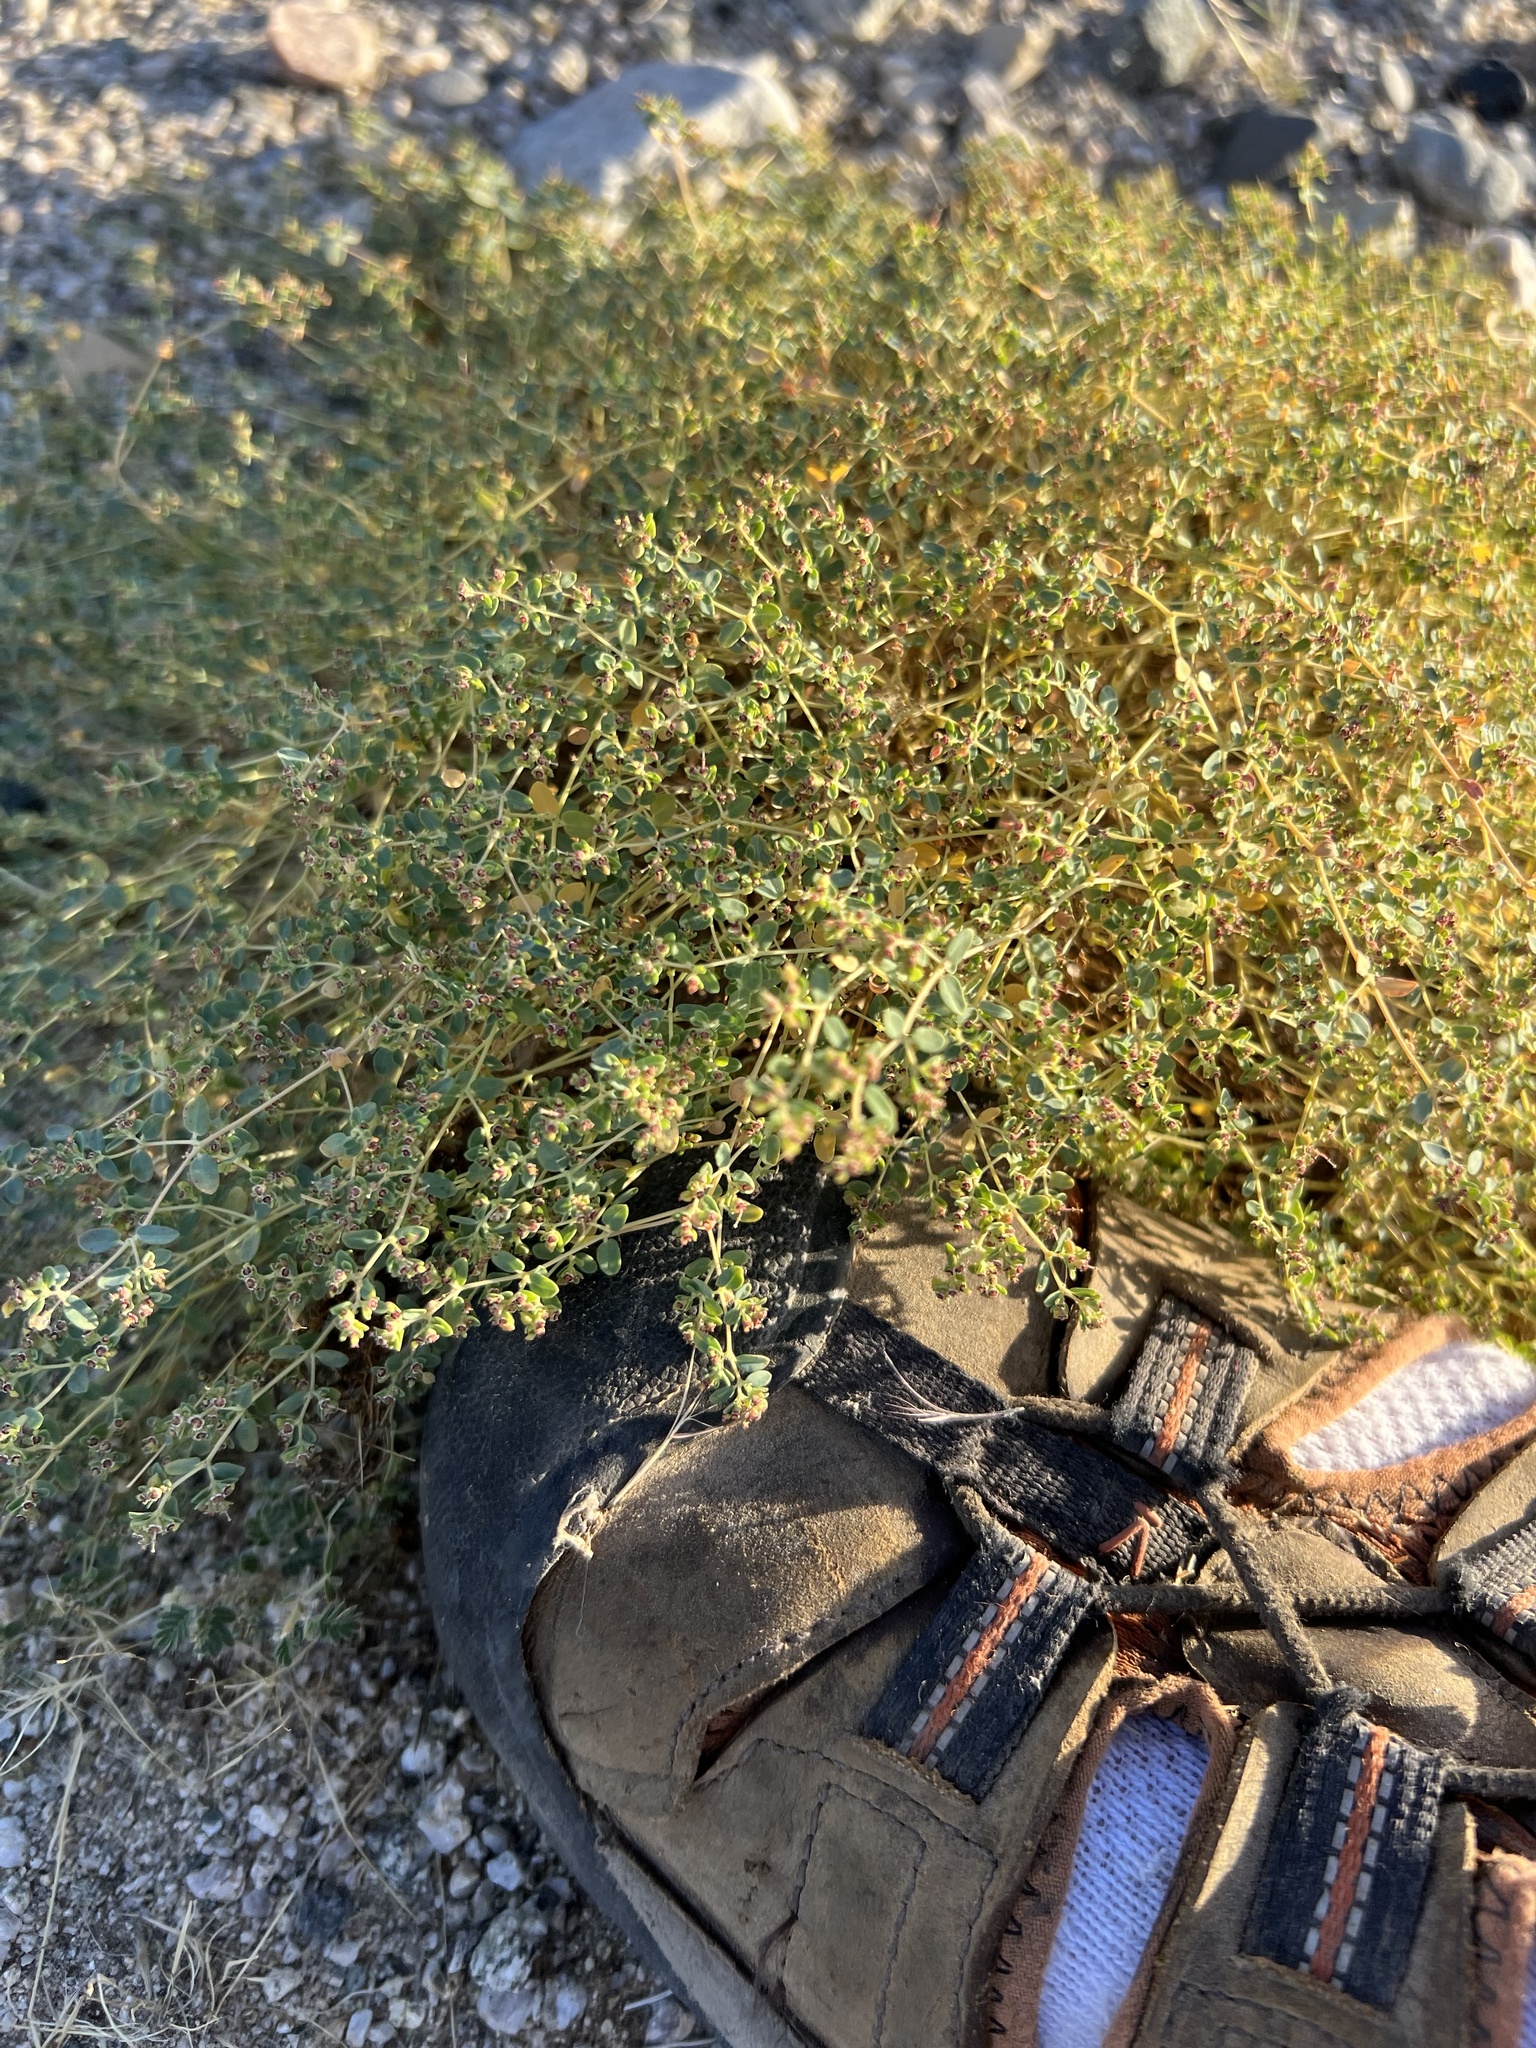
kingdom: Plantae
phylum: Tracheophyta
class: Magnoliopsida
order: Malpighiales
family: Euphorbiaceae
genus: Euphorbia
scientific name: Euphorbia polycarpa
